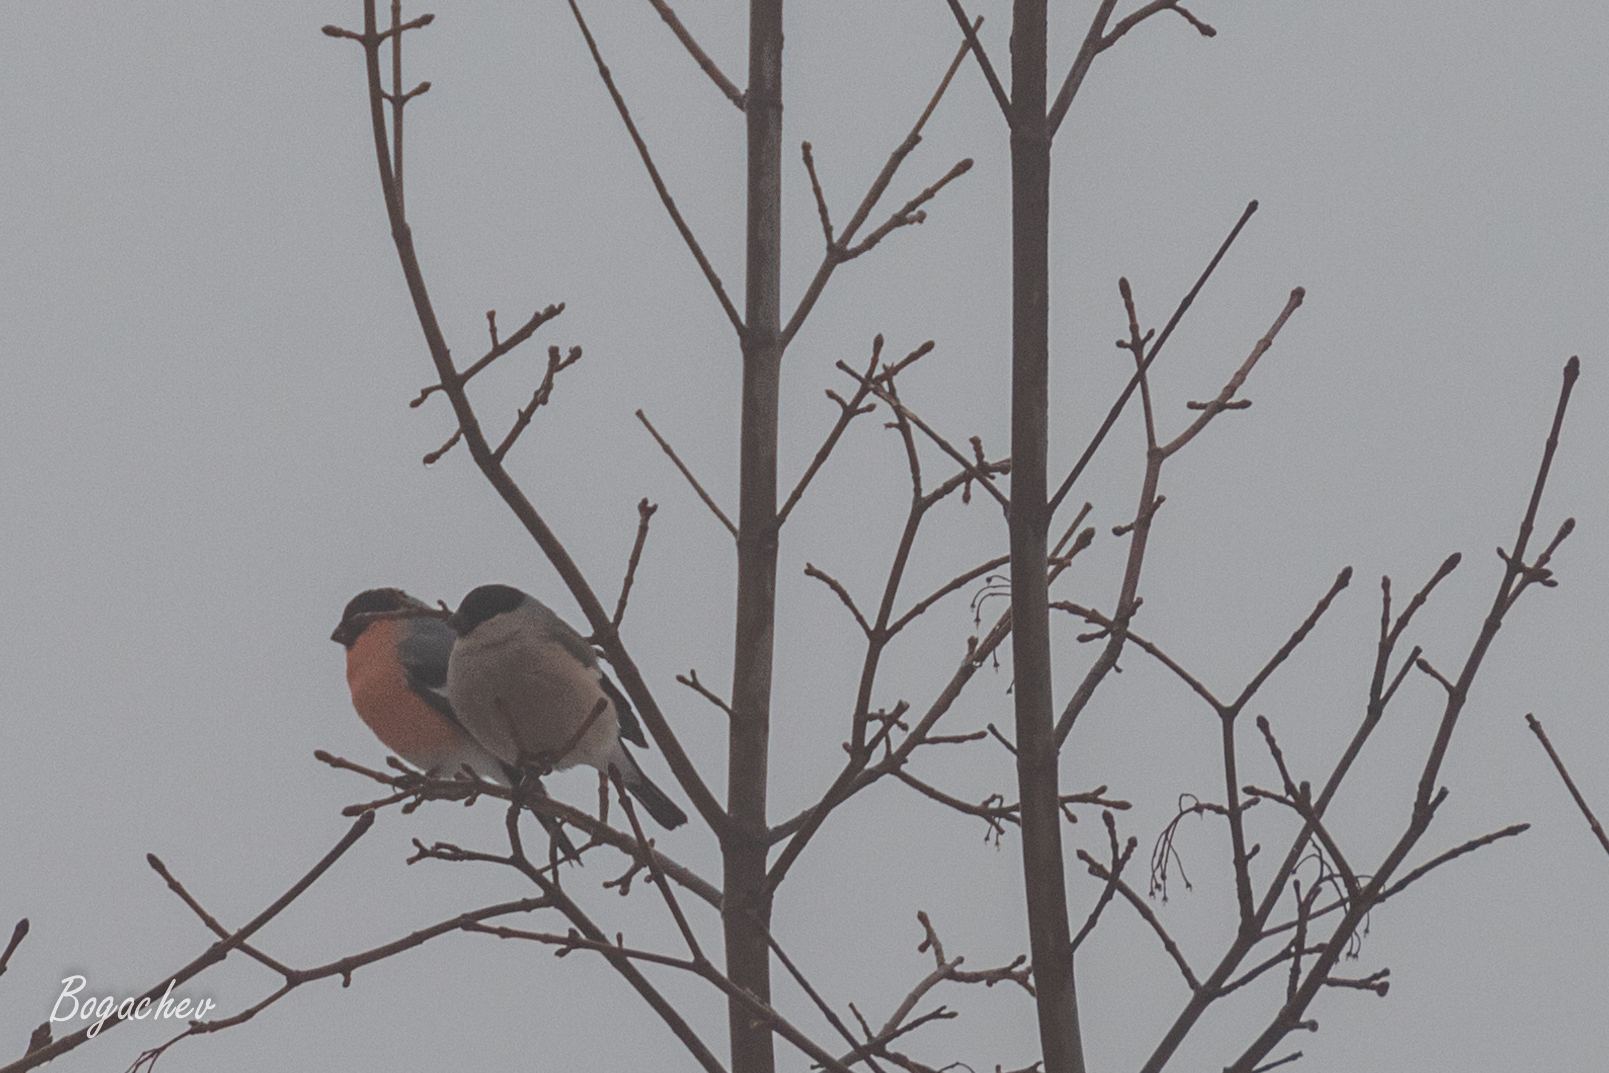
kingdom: Animalia
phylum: Chordata
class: Aves
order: Passeriformes
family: Fringillidae
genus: Pyrrhula
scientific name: Pyrrhula pyrrhula
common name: Eurasian bullfinch
